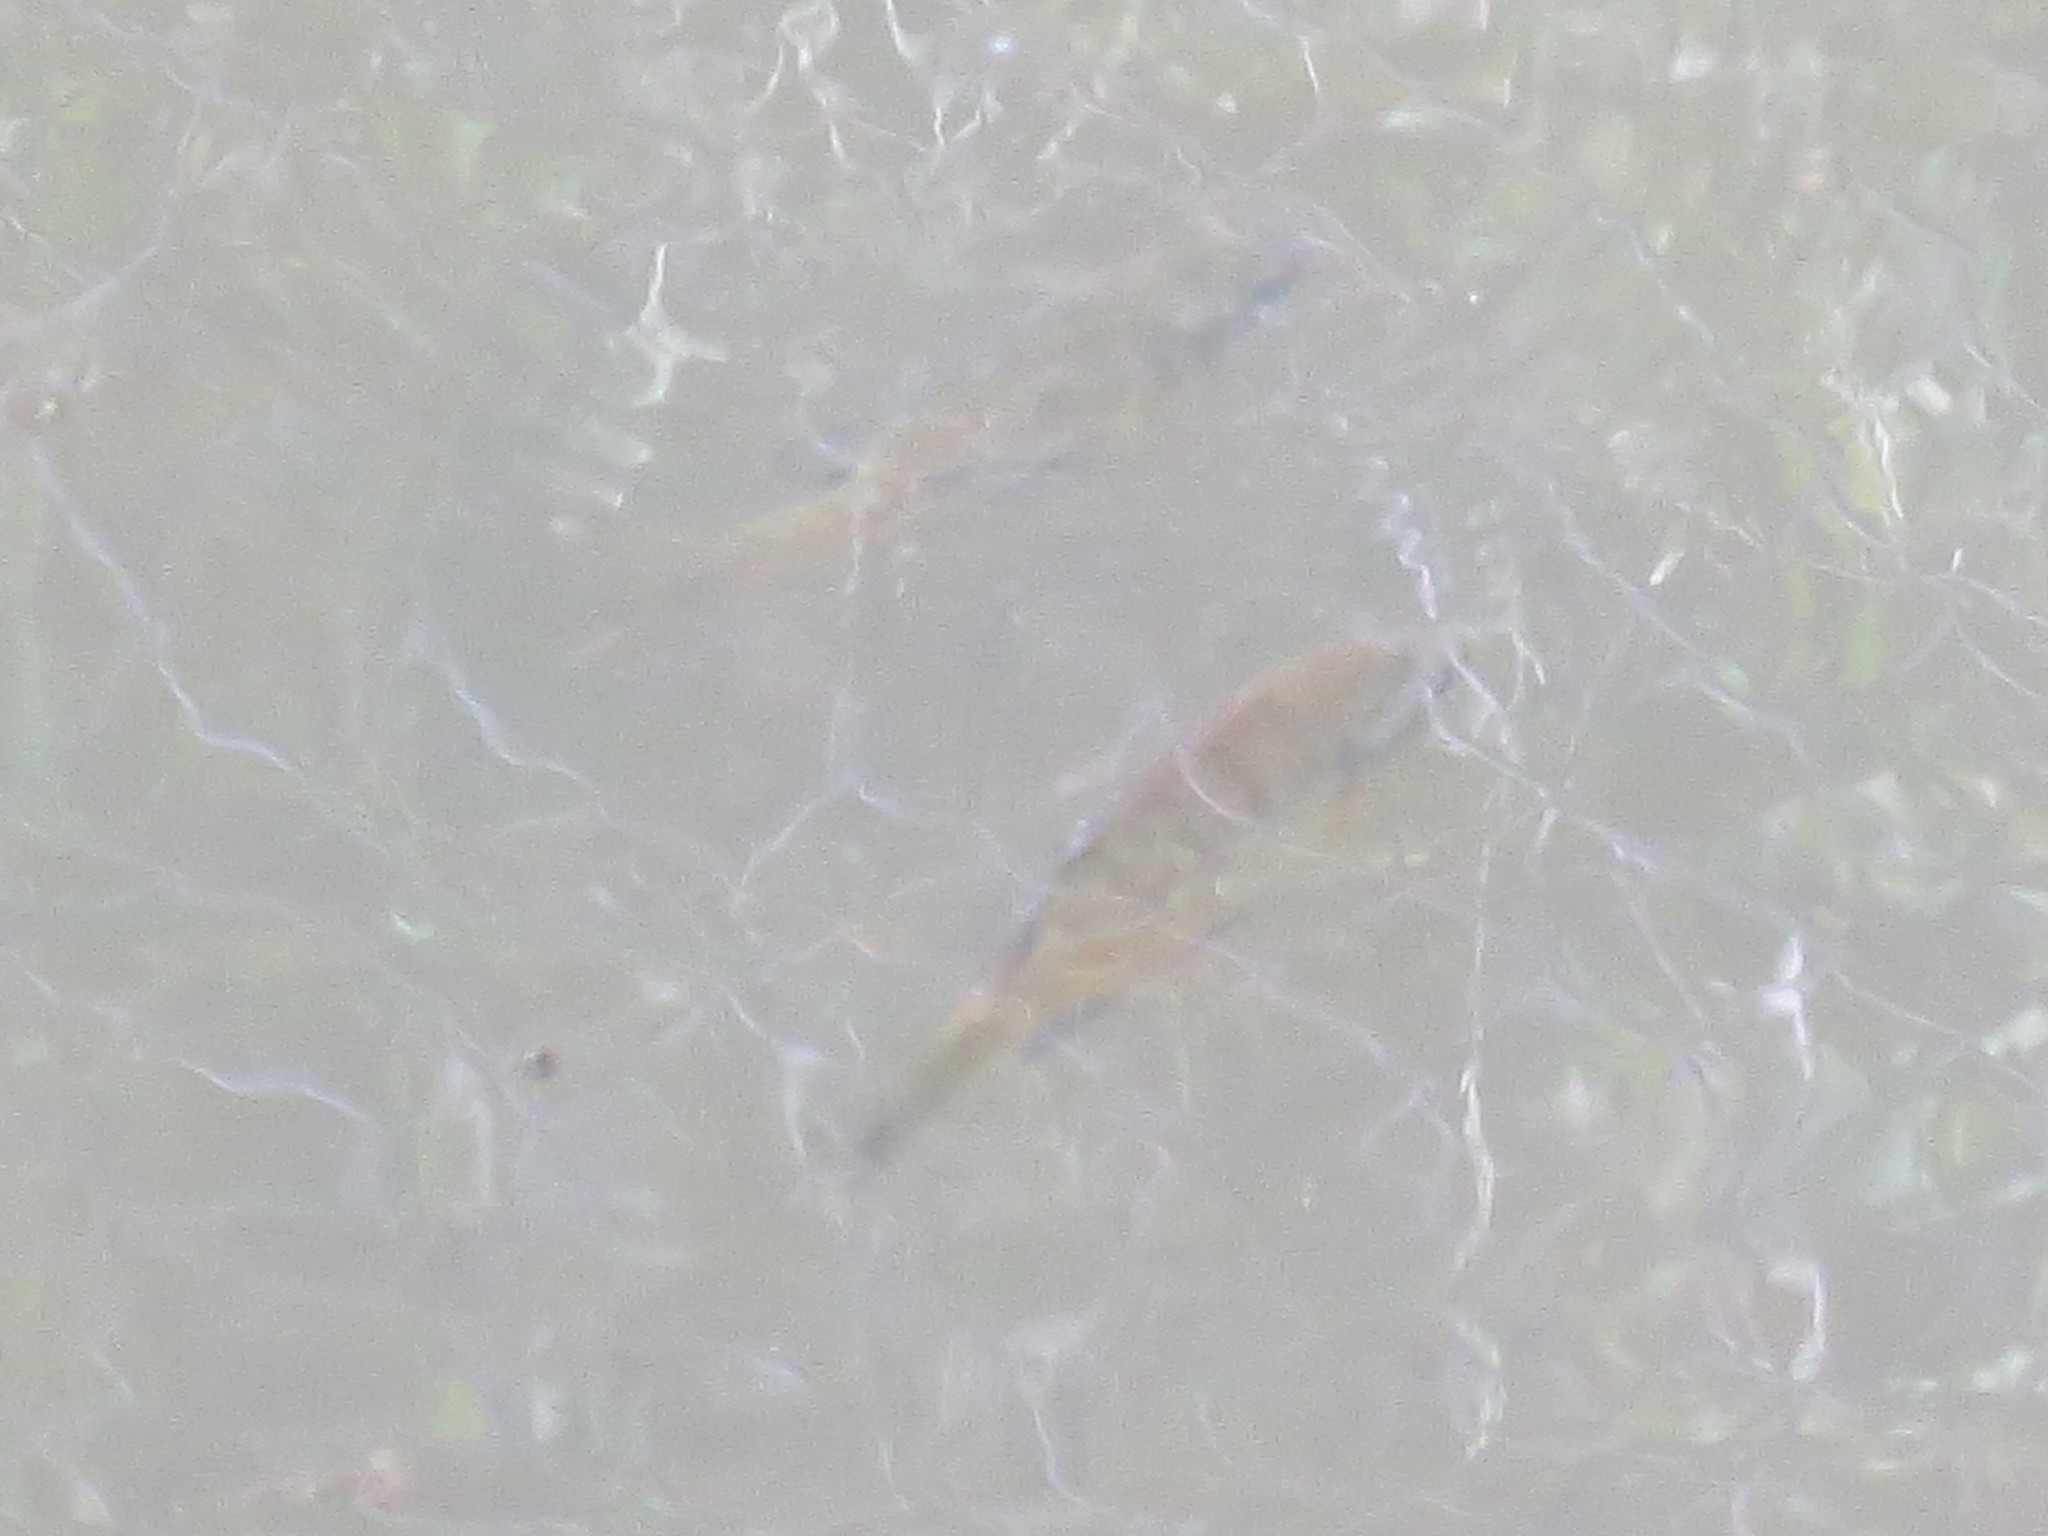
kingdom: Animalia
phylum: Chordata
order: Perciformes
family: Centrarchidae
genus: Lepomis
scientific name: Lepomis macrochirus
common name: Bluegill
